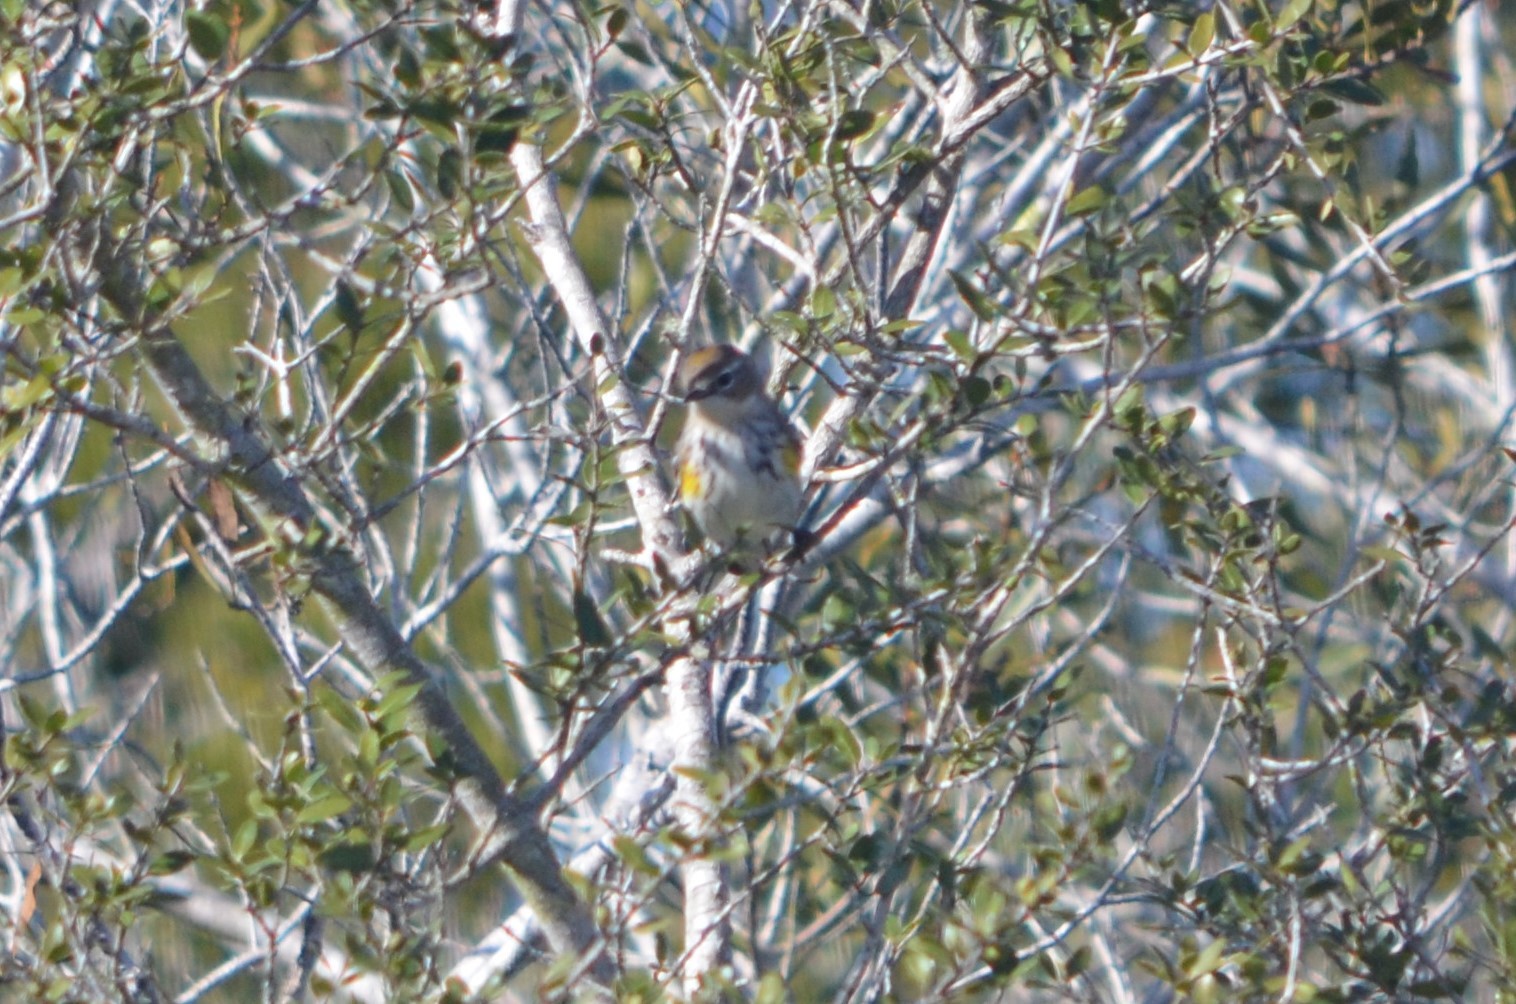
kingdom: Animalia
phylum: Chordata
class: Aves
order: Passeriformes
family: Parulidae
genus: Setophaga
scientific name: Setophaga coronata
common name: Myrtle warbler
